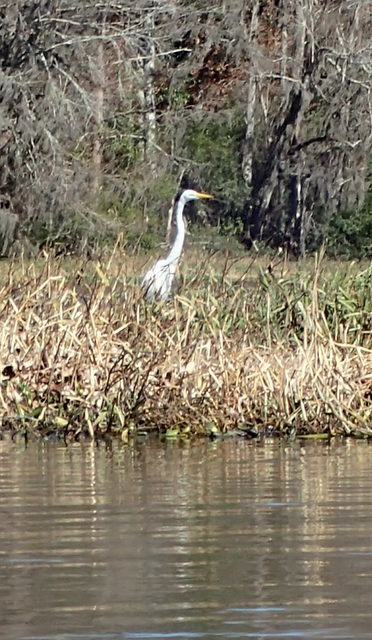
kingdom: Animalia
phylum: Chordata
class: Aves
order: Pelecaniformes
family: Ardeidae
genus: Ardea
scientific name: Ardea alba
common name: Great egret
